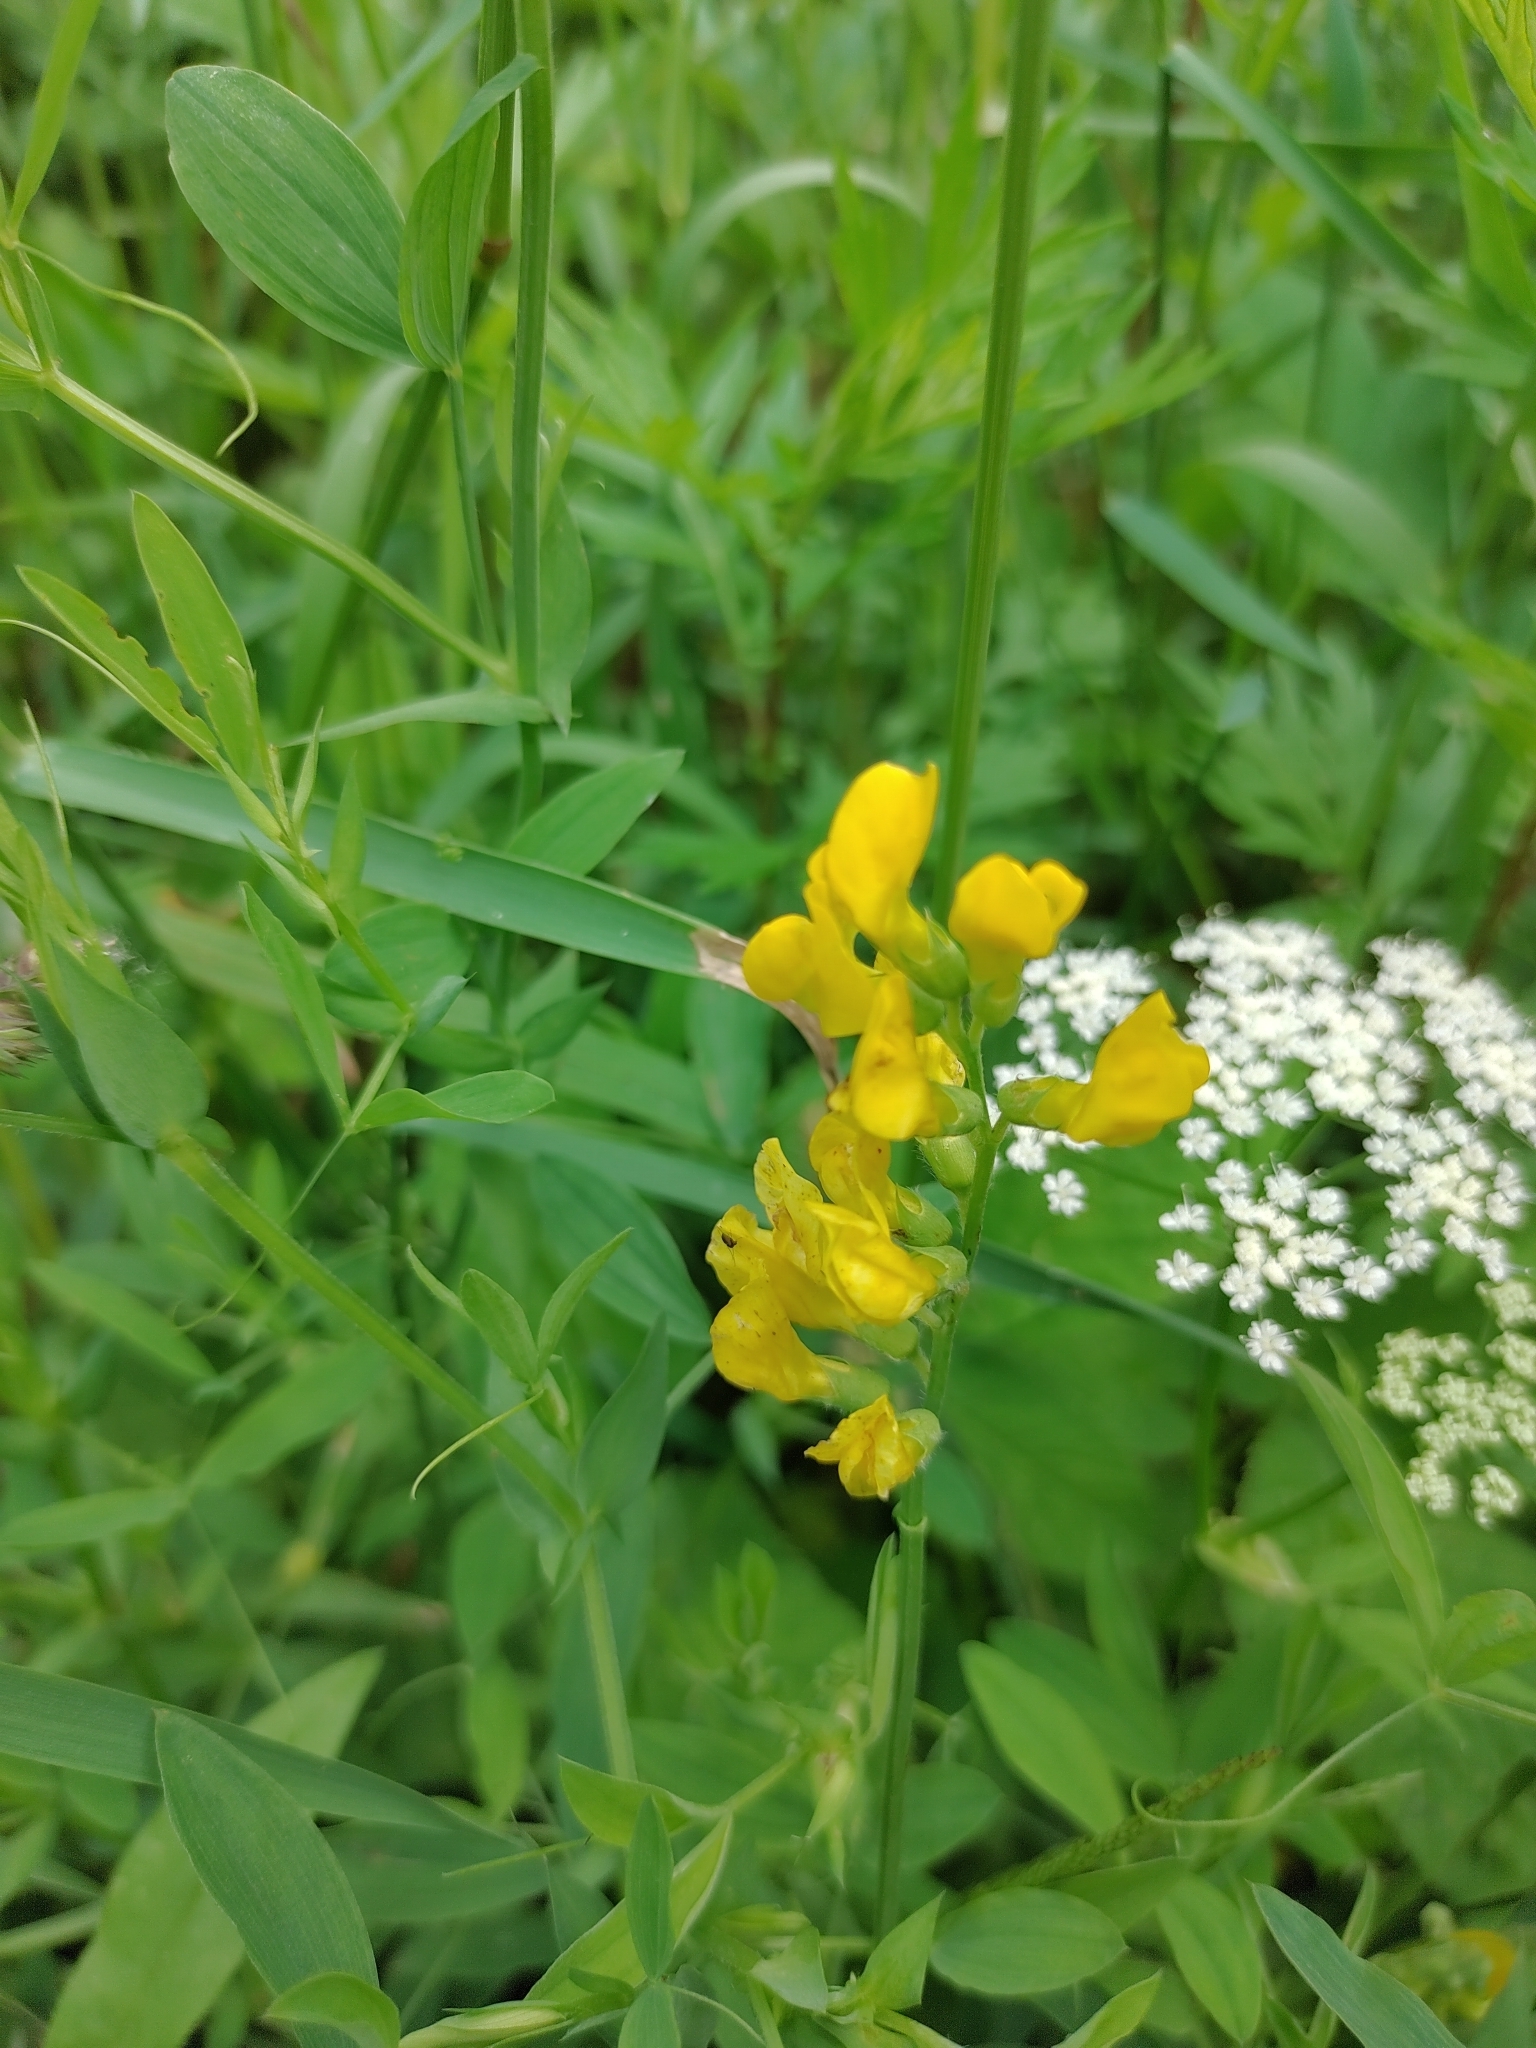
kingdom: Plantae
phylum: Tracheophyta
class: Magnoliopsida
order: Fabales
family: Fabaceae
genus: Lathyrus
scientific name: Lathyrus pratensis
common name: Meadow vetchling
